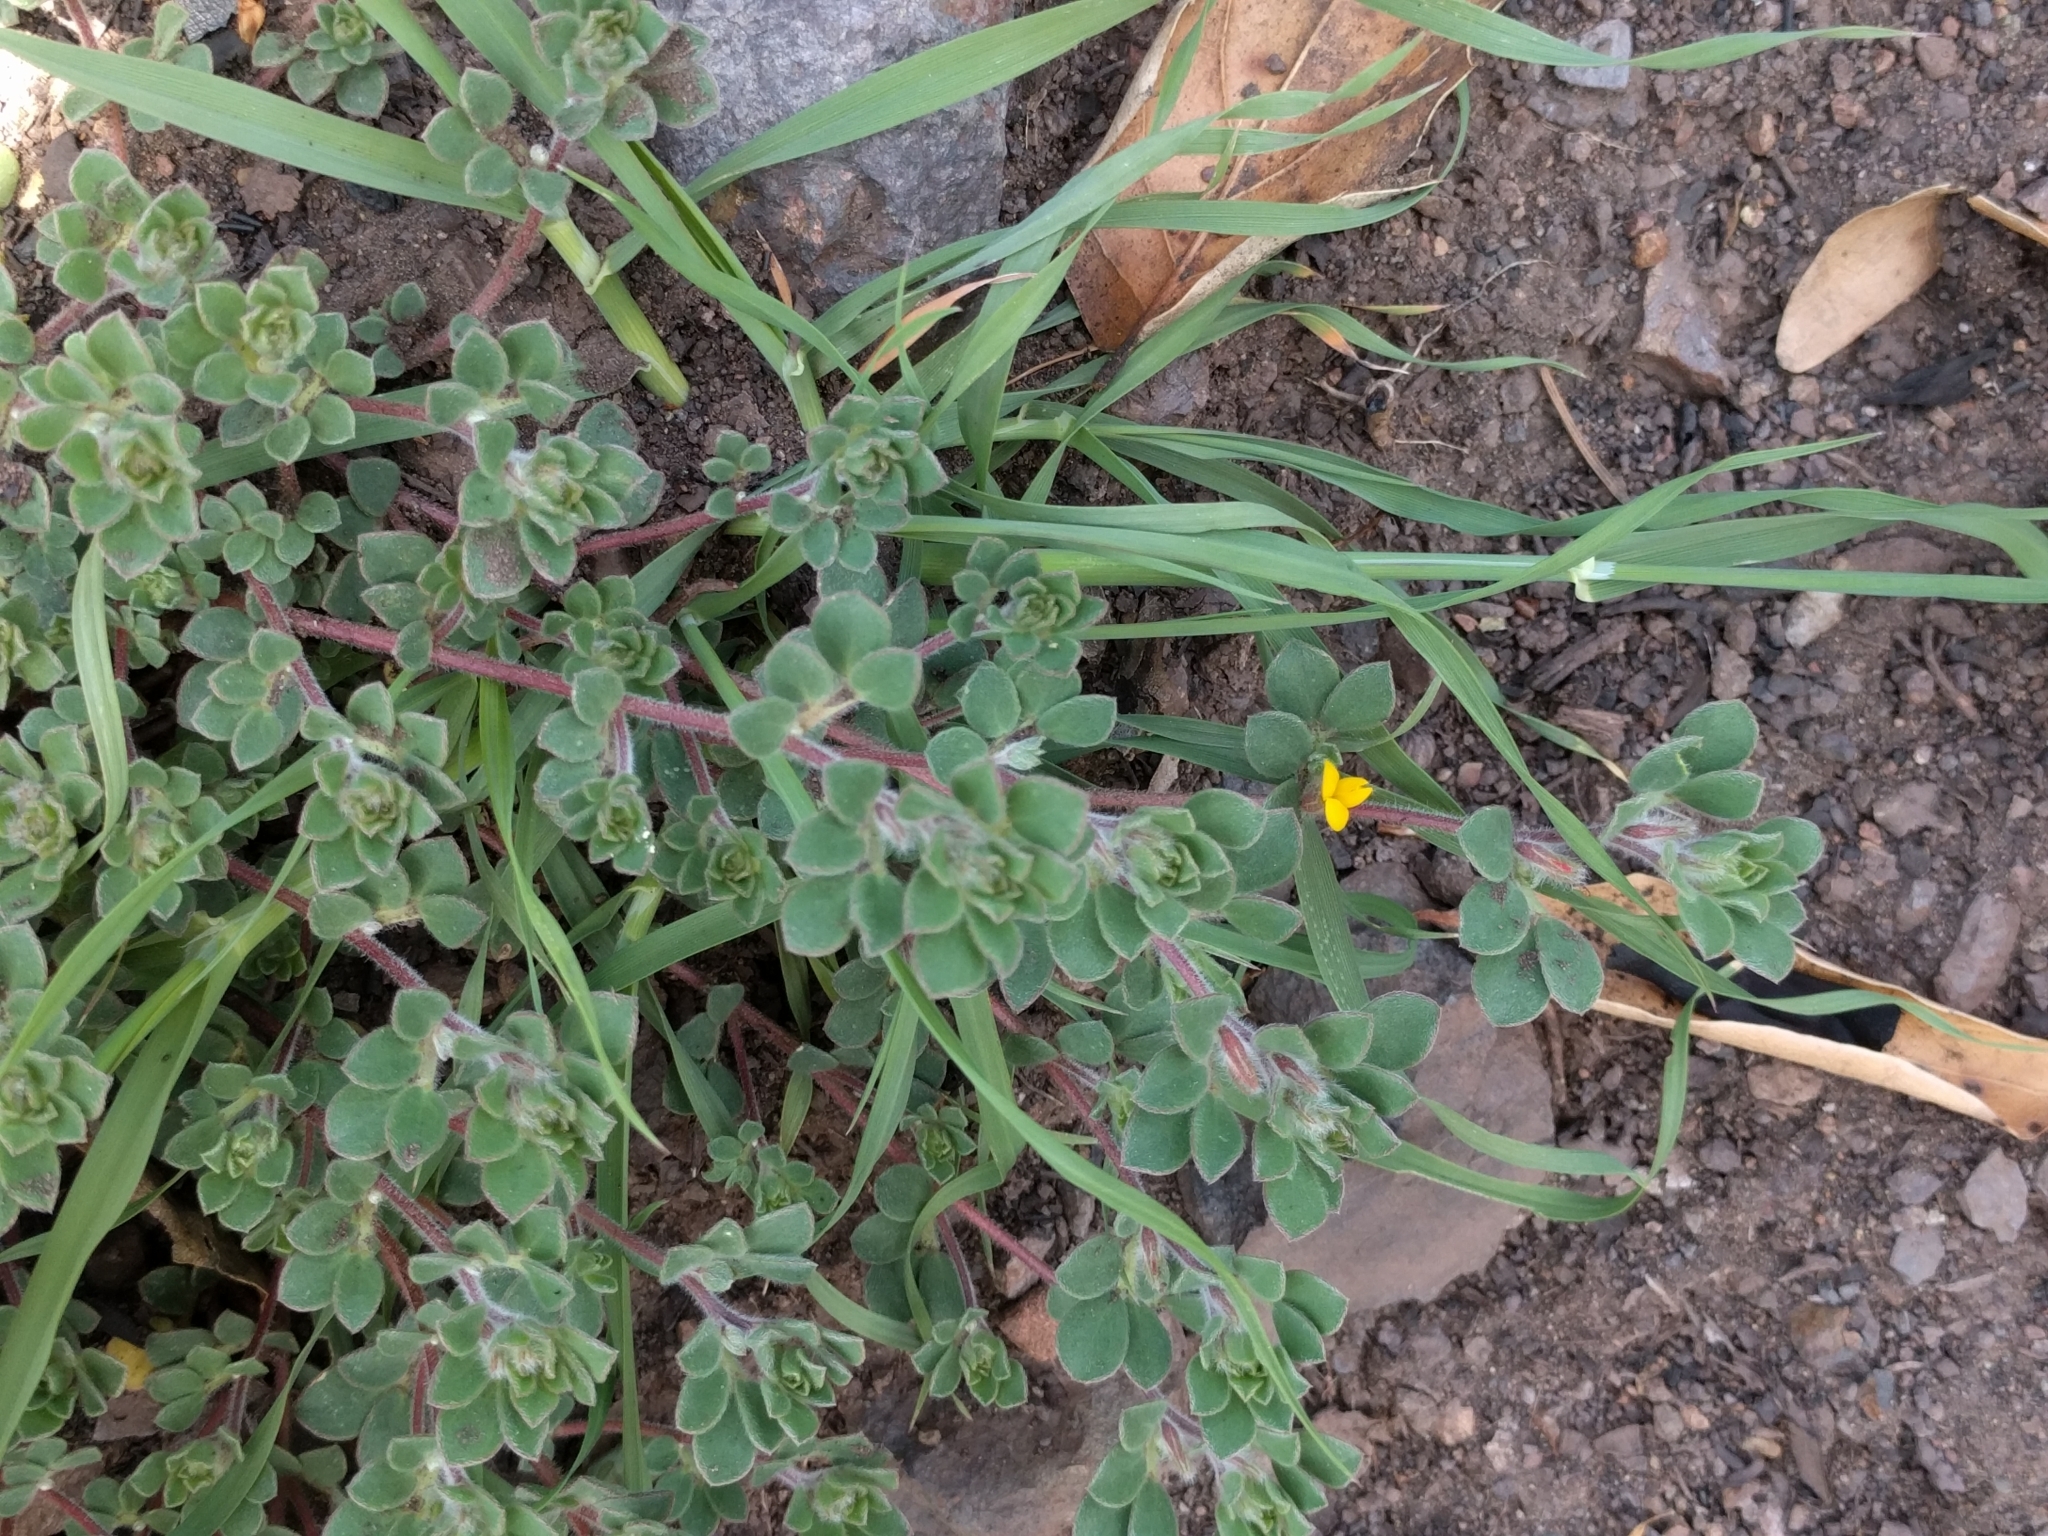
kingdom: Plantae
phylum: Tracheophyta
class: Magnoliopsida
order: Fabales
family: Fabaceae
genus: Acmispon
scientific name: Acmispon wrangelianus
